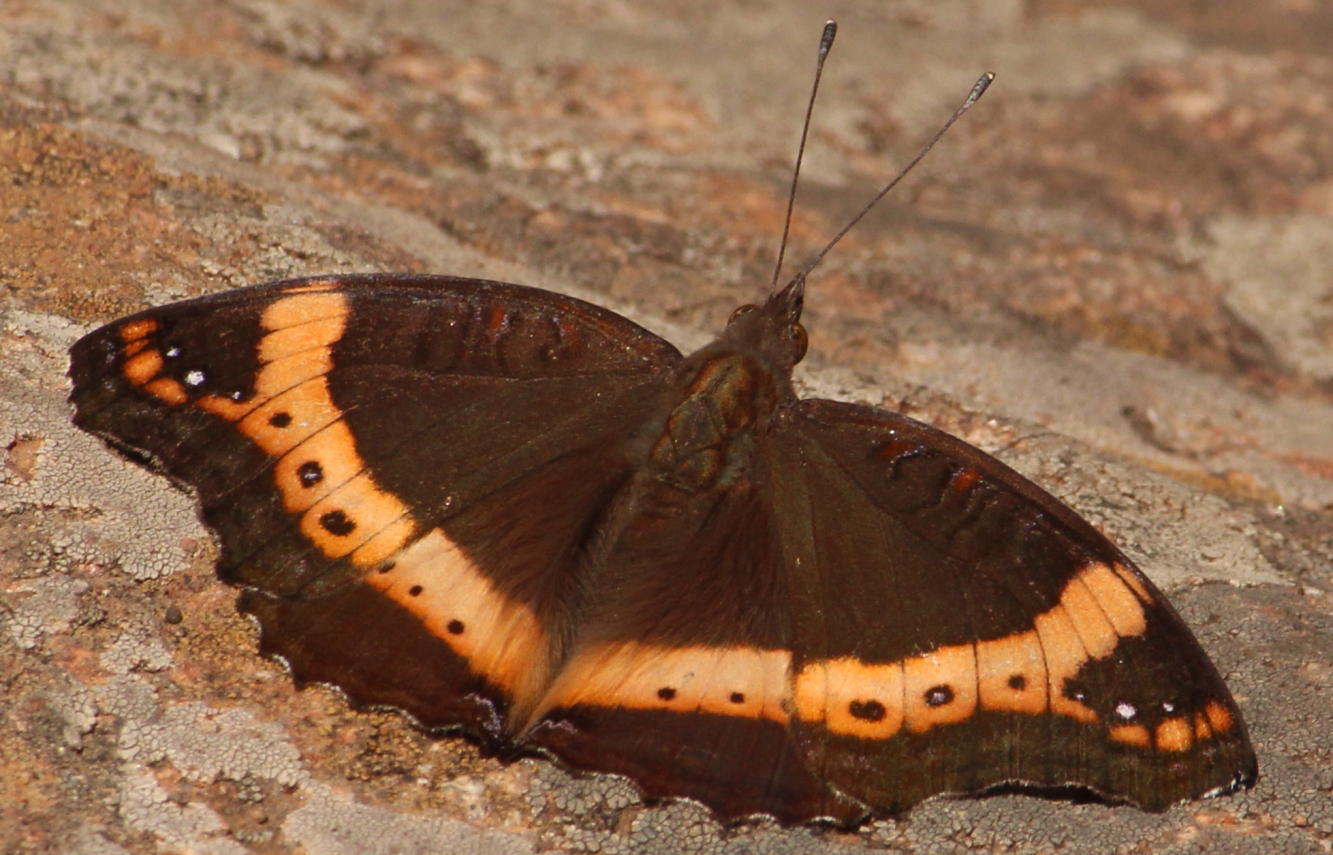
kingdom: Animalia
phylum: Arthropoda
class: Insecta
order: Lepidoptera
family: Nymphalidae
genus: Junonia
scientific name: Junonia archesia
